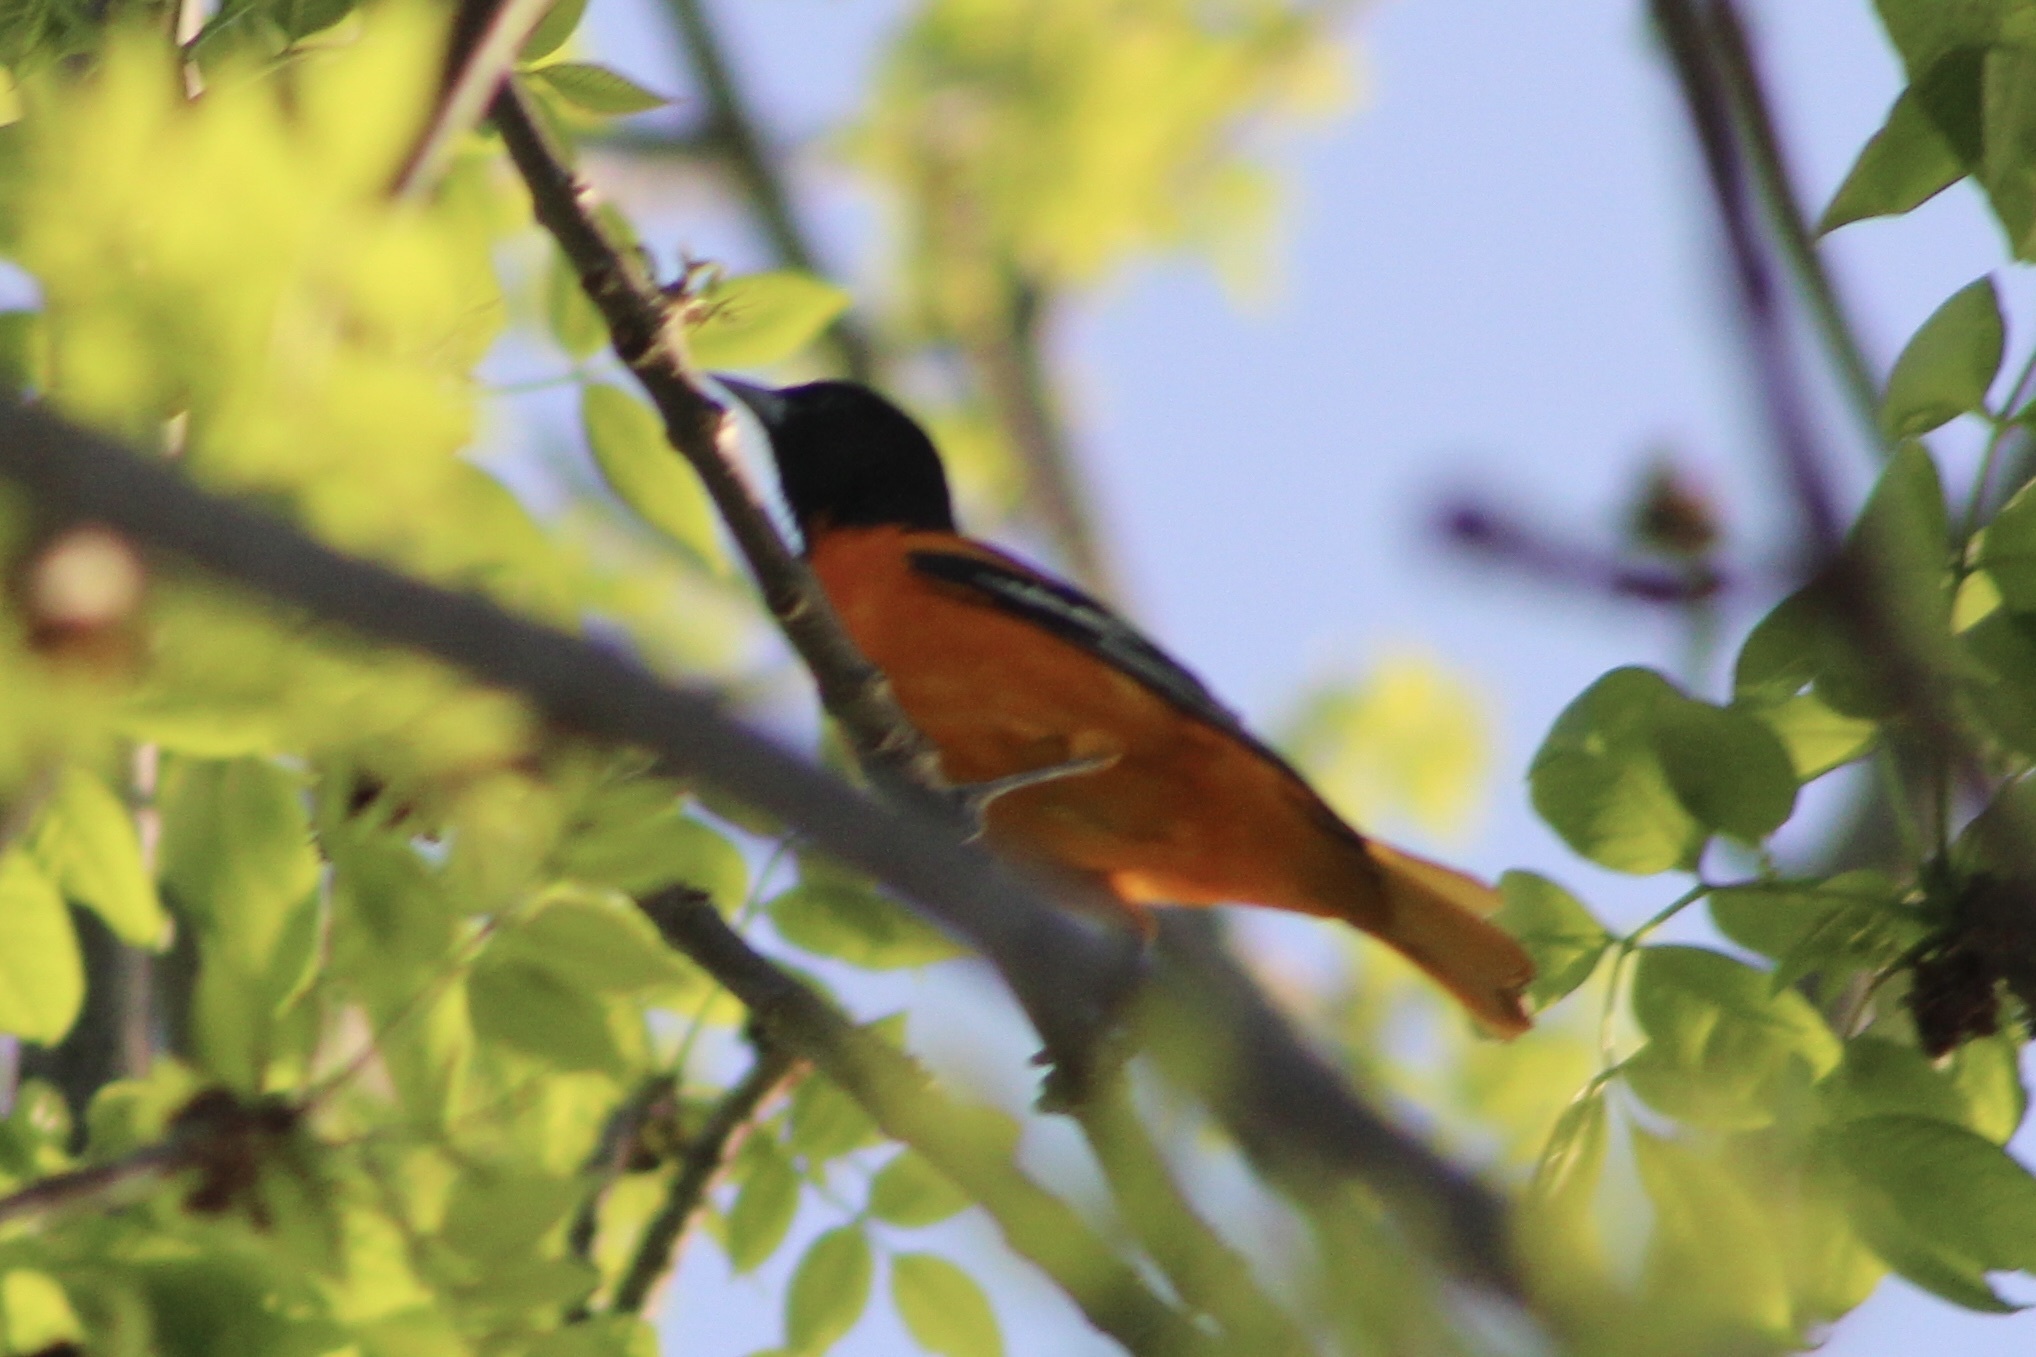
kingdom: Animalia
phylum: Chordata
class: Aves
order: Passeriformes
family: Icteridae
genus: Icterus
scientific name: Icterus galbula
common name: Baltimore oriole
